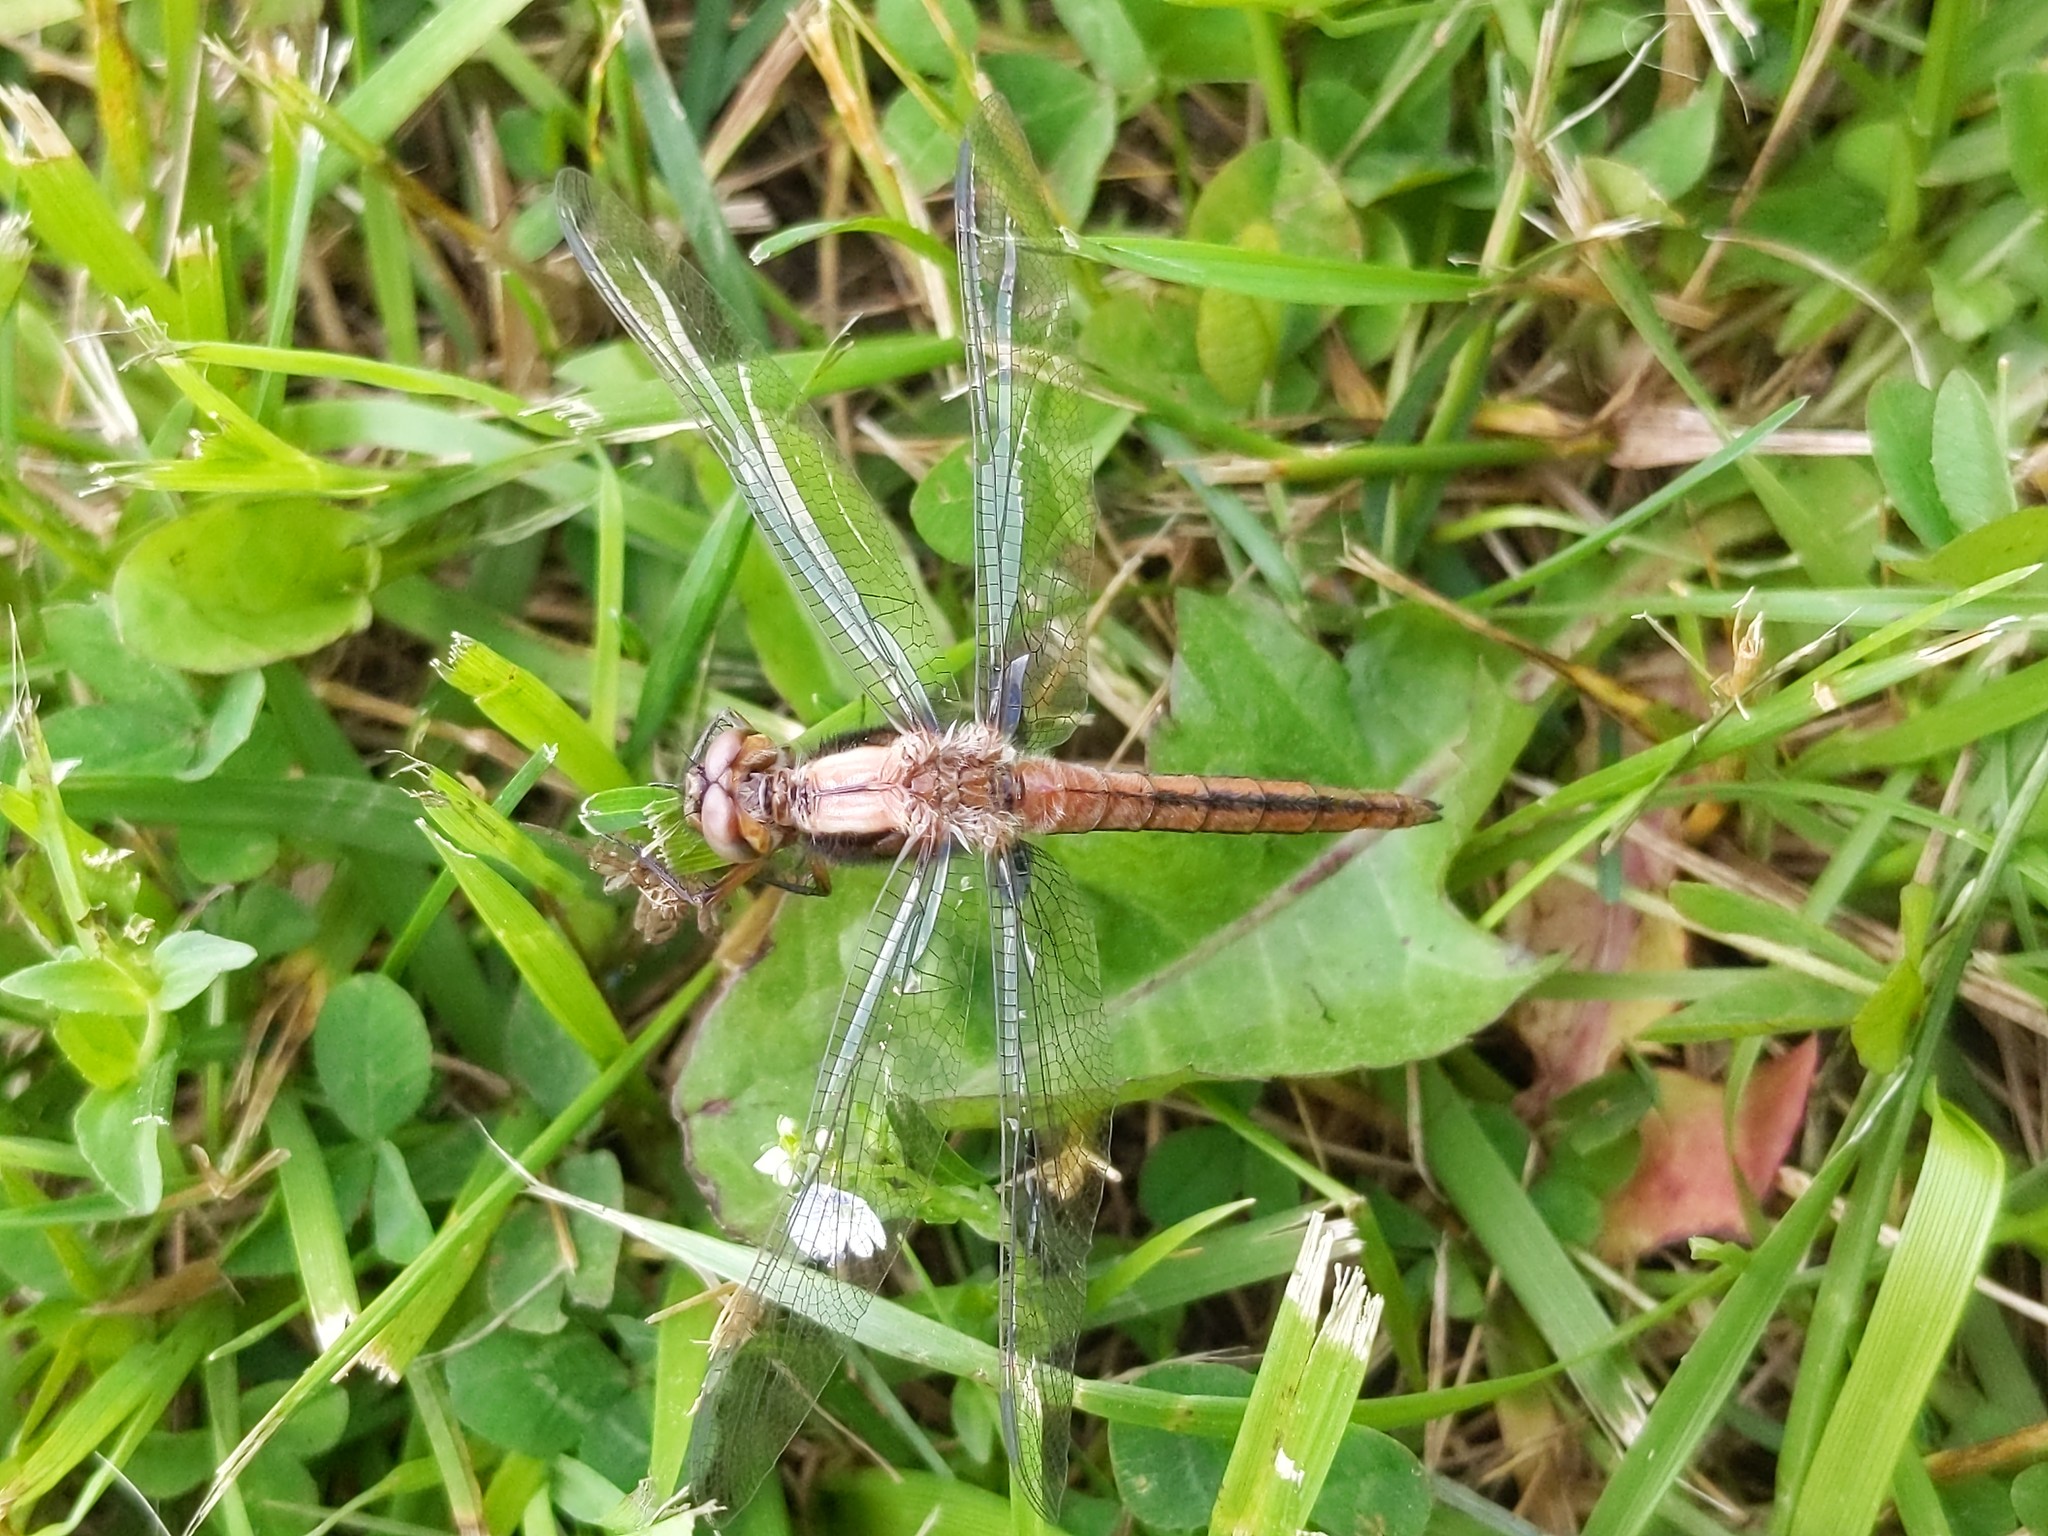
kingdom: Animalia
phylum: Arthropoda
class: Insecta
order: Odonata
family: Libellulidae
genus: Ladona
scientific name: Ladona julia
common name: Chalk-fronted corporal
